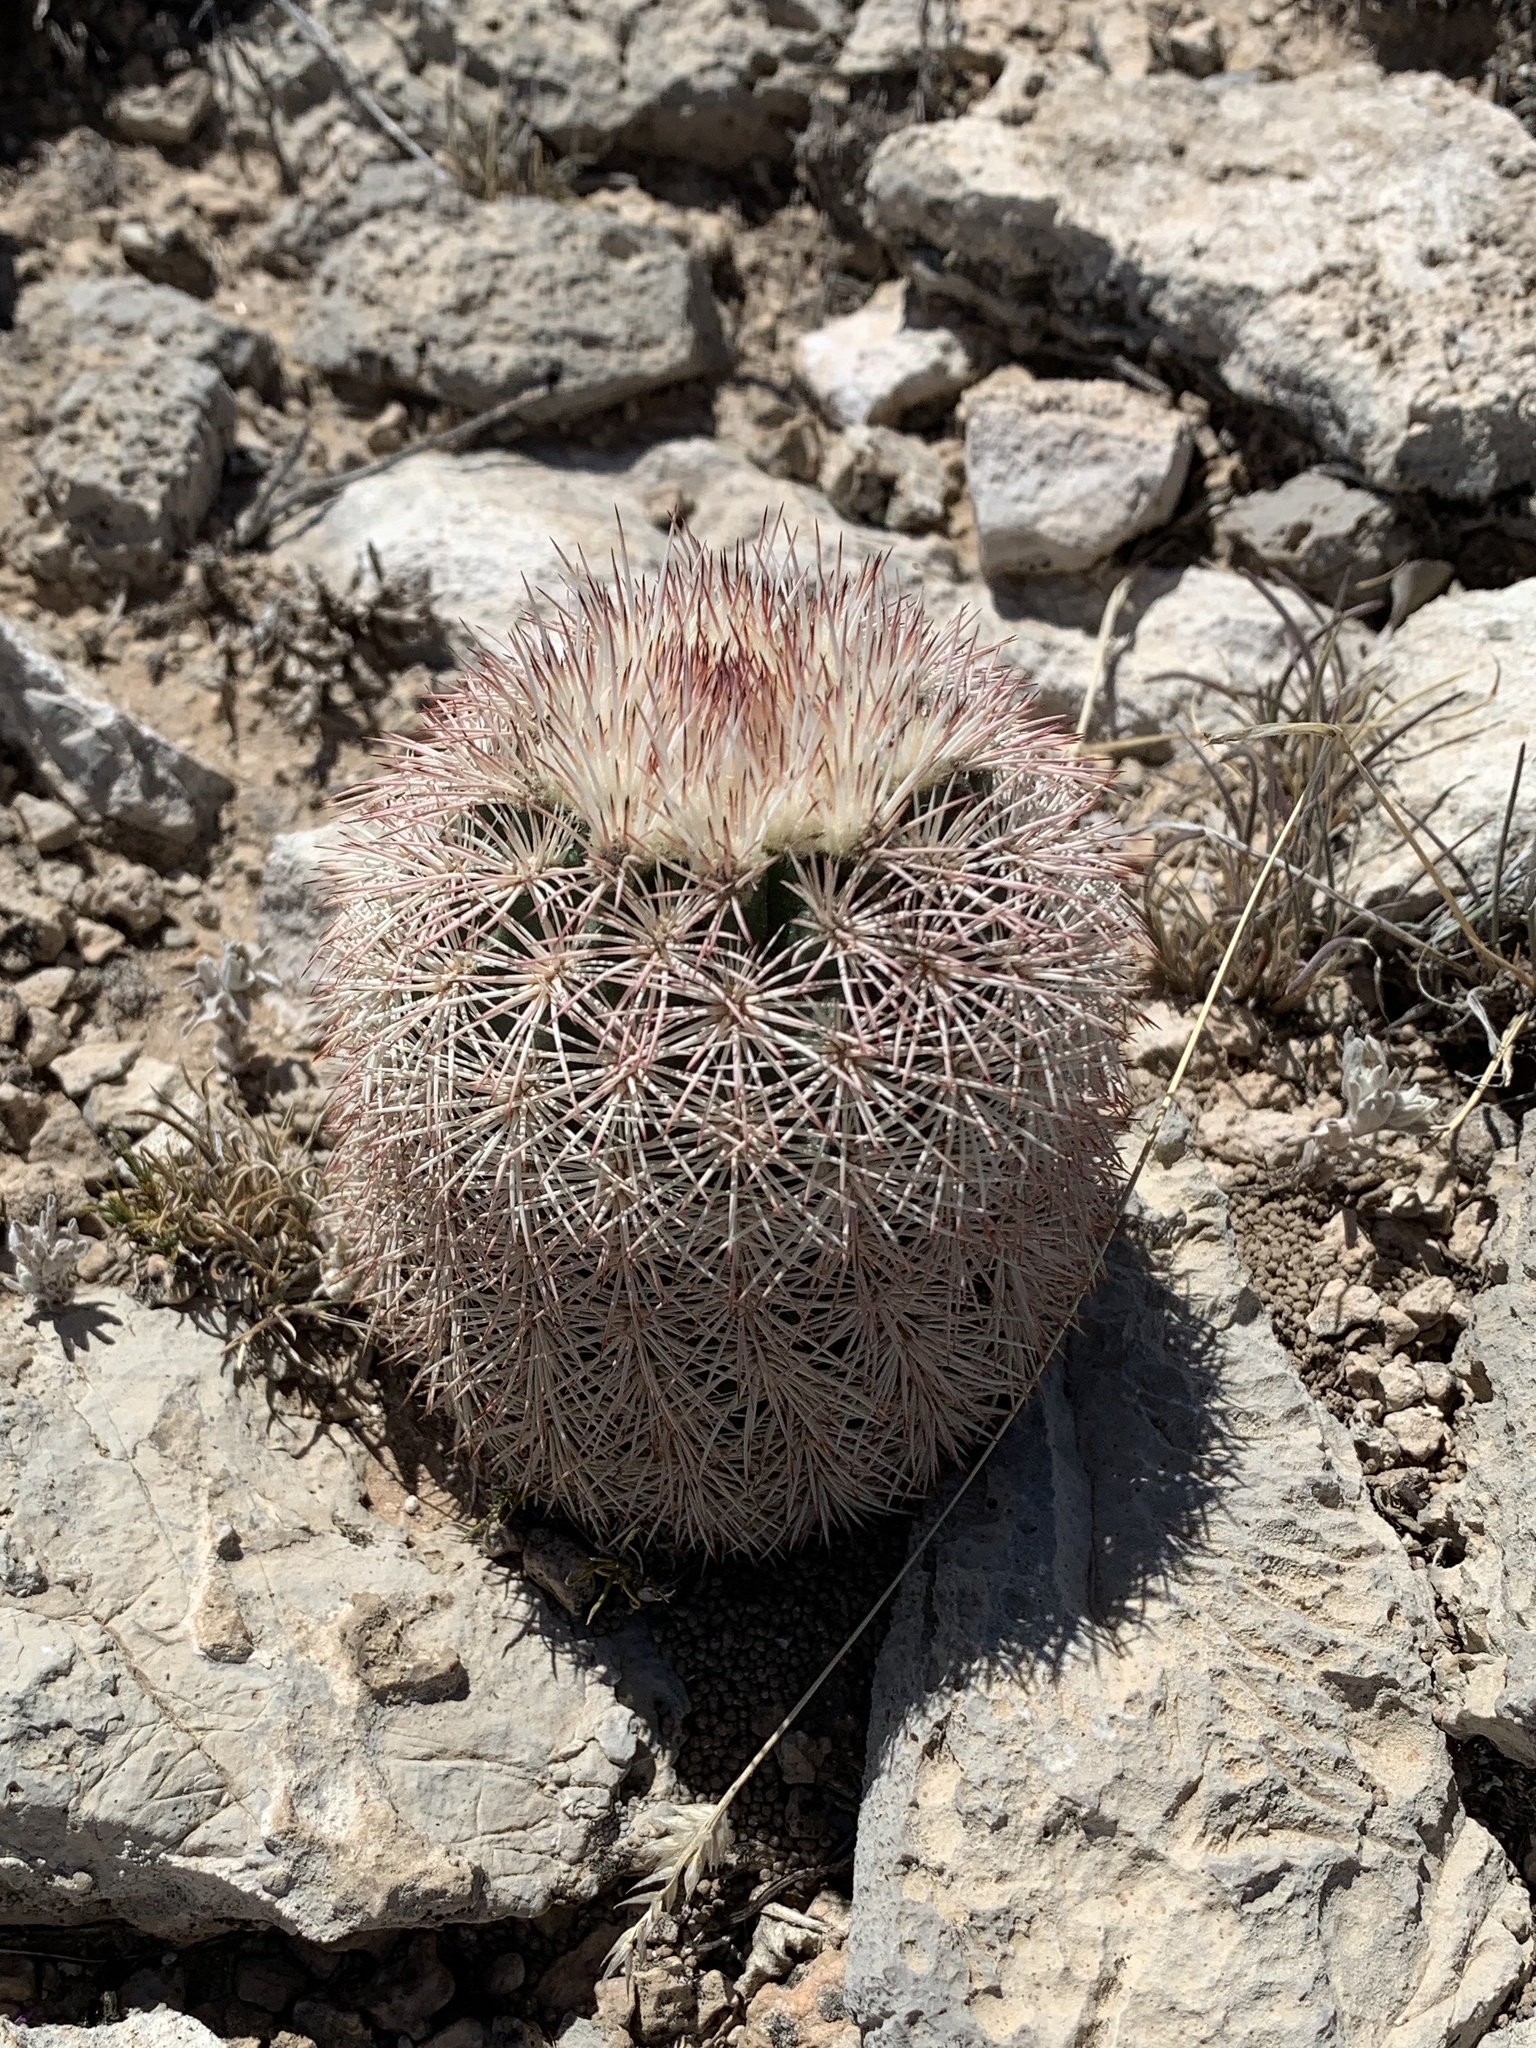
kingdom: Plantae
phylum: Tracheophyta
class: Magnoliopsida
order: Caryophyllales
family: Cactaceae
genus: Echinocereus
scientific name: Echinocereus dasyacanthus
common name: Spiny hedgehog cactus
